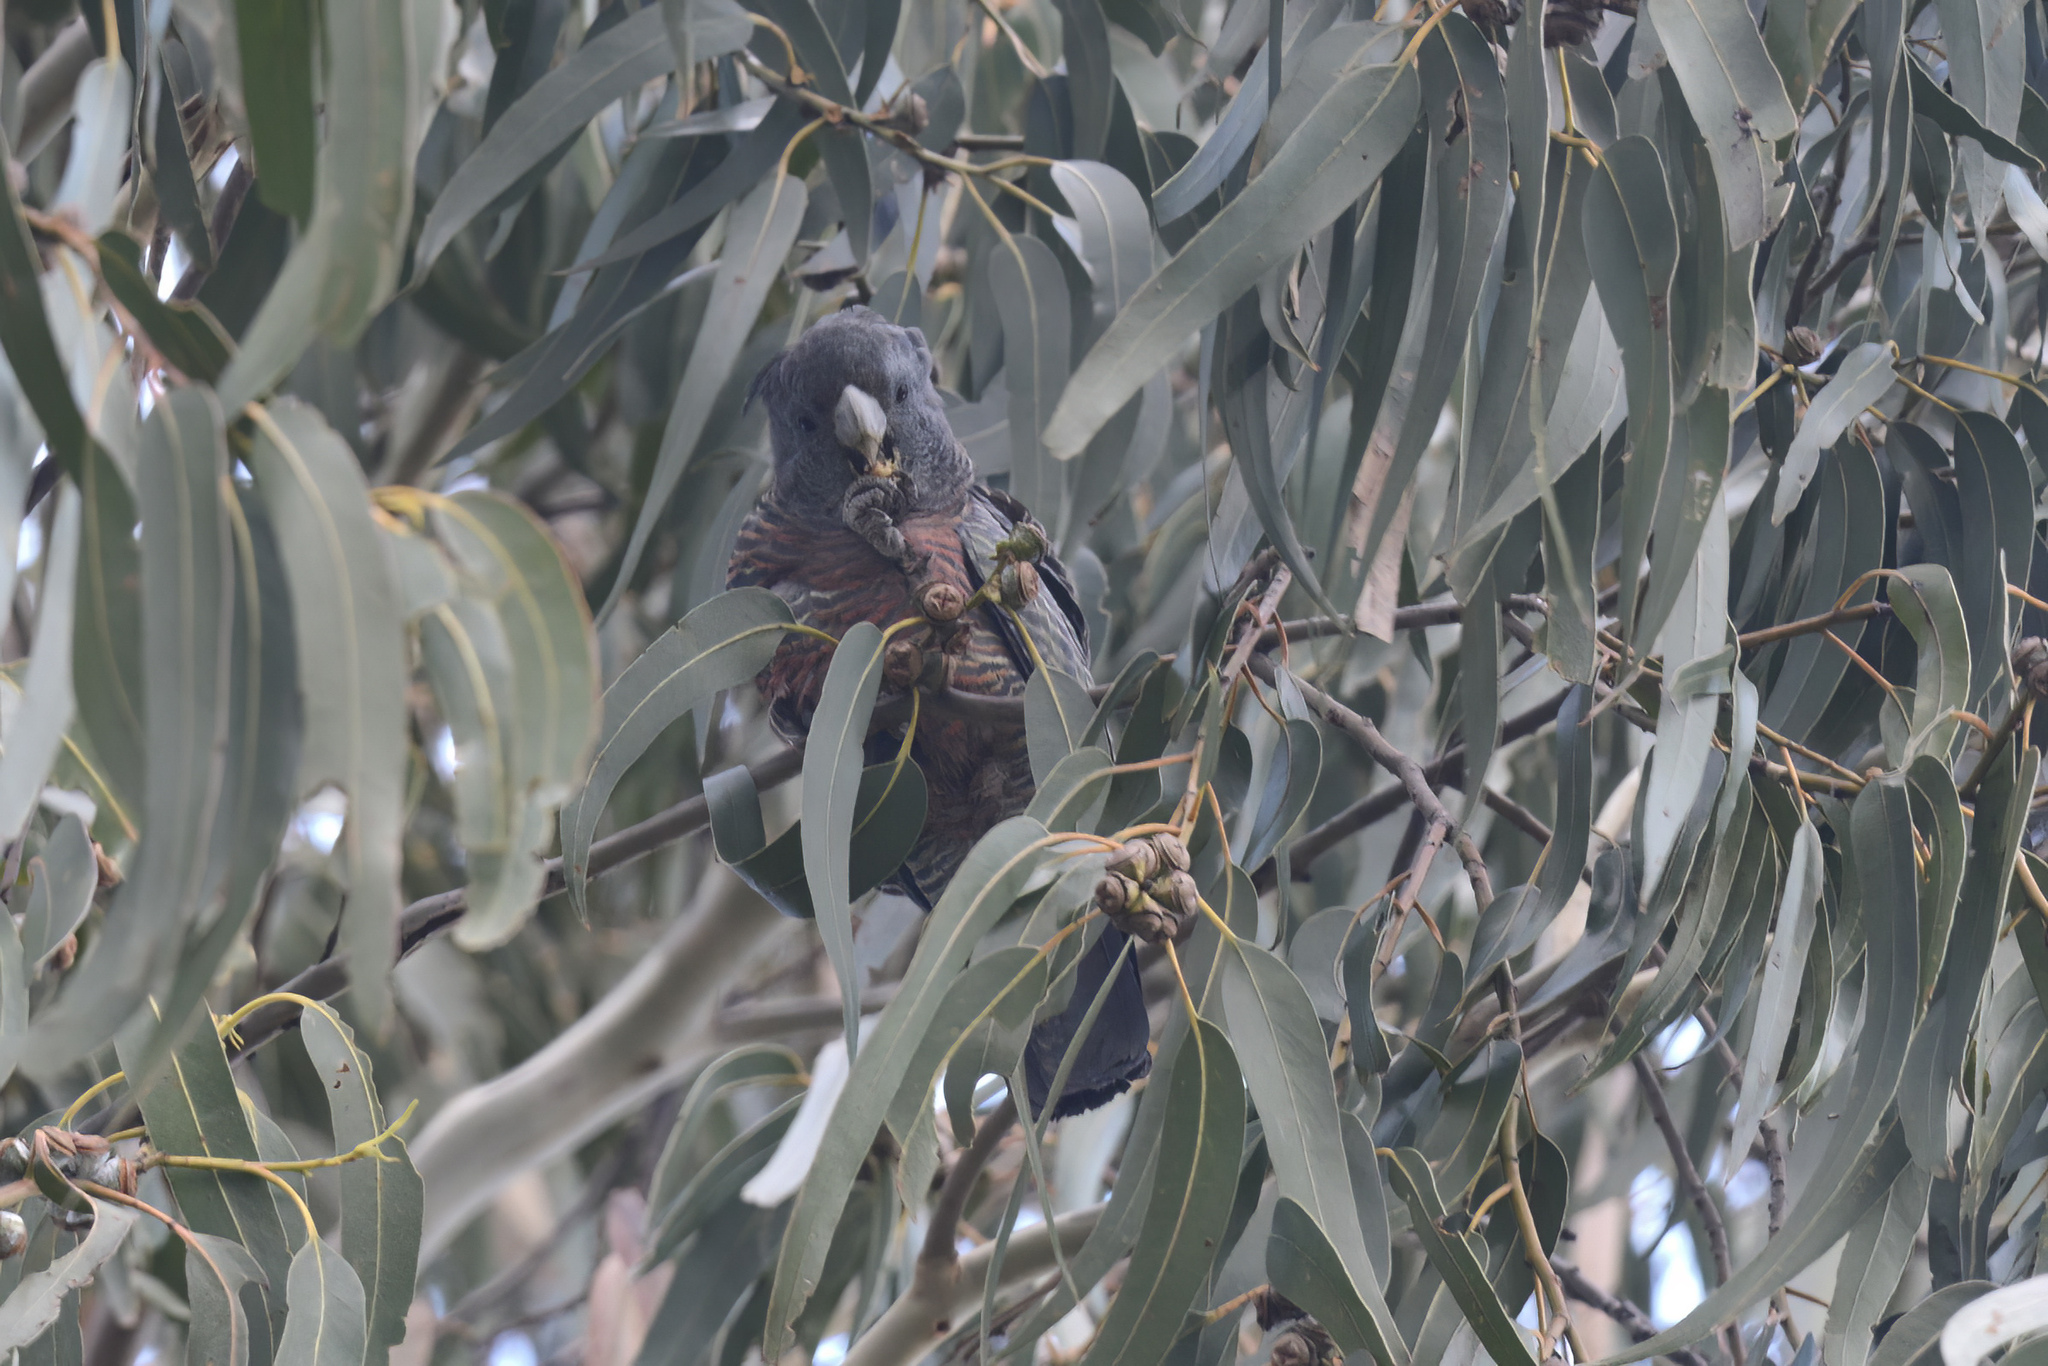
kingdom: Animalia
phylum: Chordata
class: Aves
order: Psittaciformes
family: Psittacidae
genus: Callocephalon
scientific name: Callocephalon fimbriatum
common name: Gang-gang cockatoo
